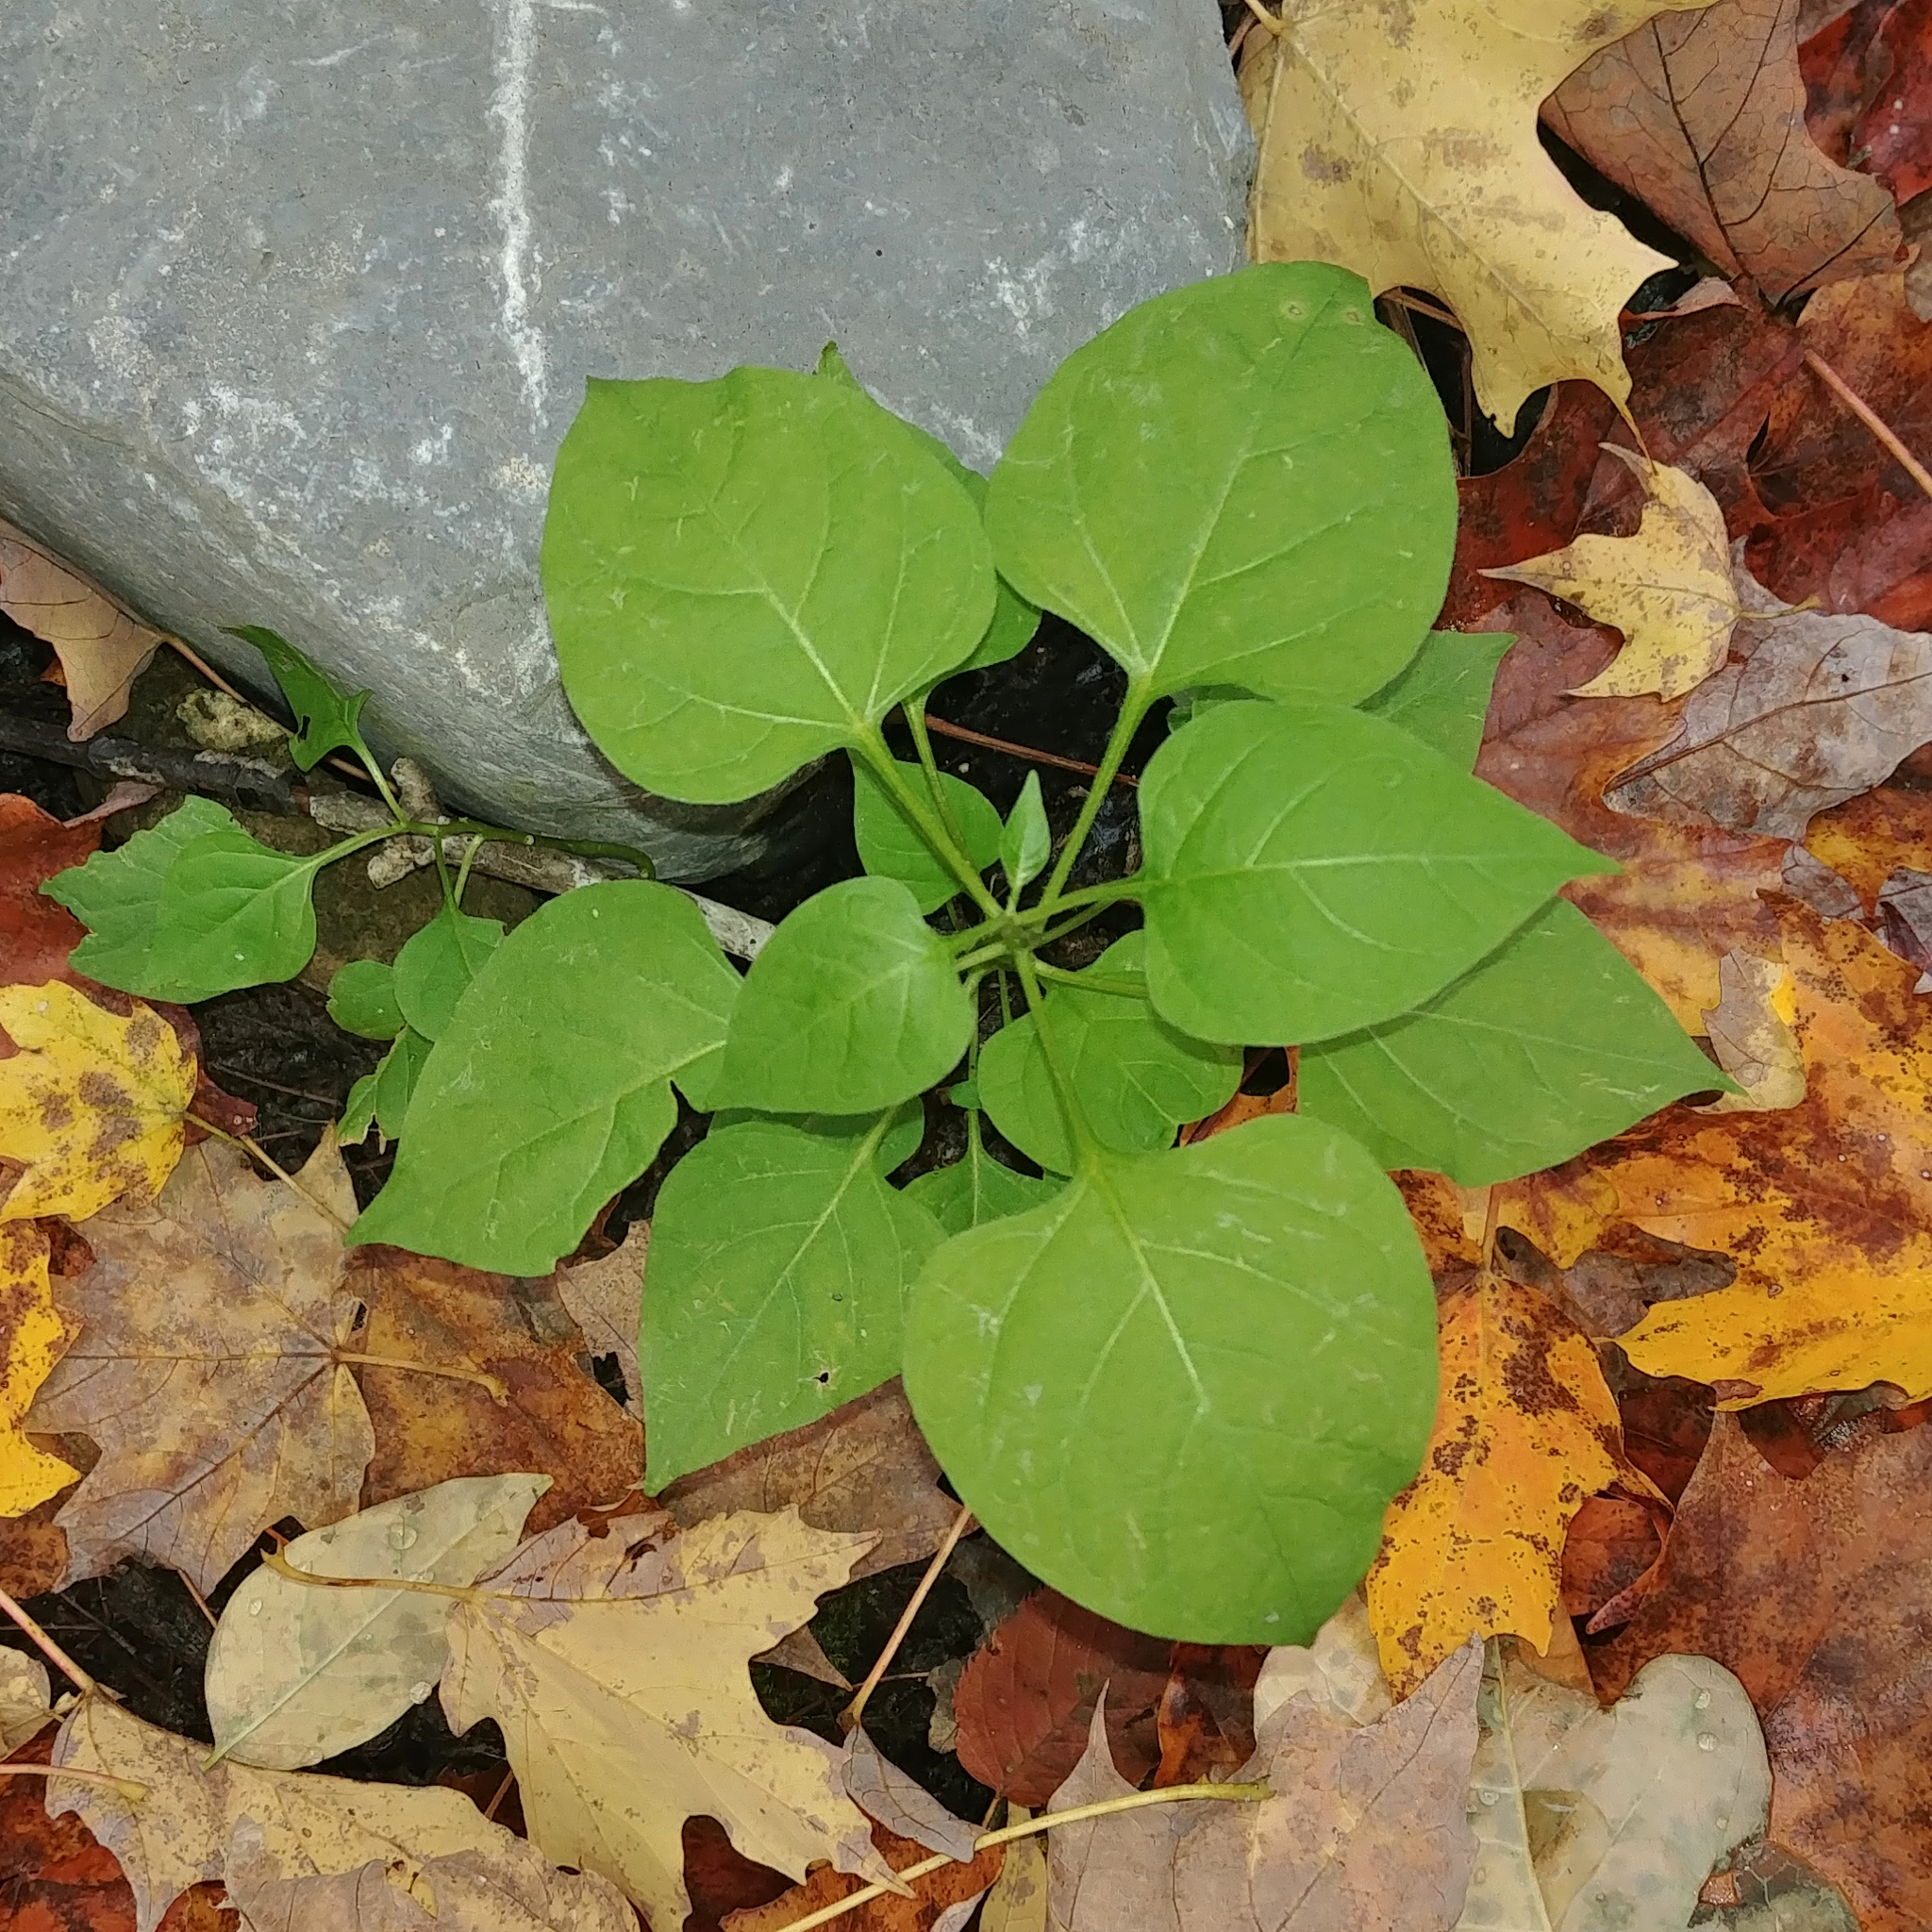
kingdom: Plantae
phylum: Tracheophyta
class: Magnoliopsida
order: Solanales
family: Solanaceae
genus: Solanum
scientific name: Solanum dulcamara
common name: Climbing nightshade
